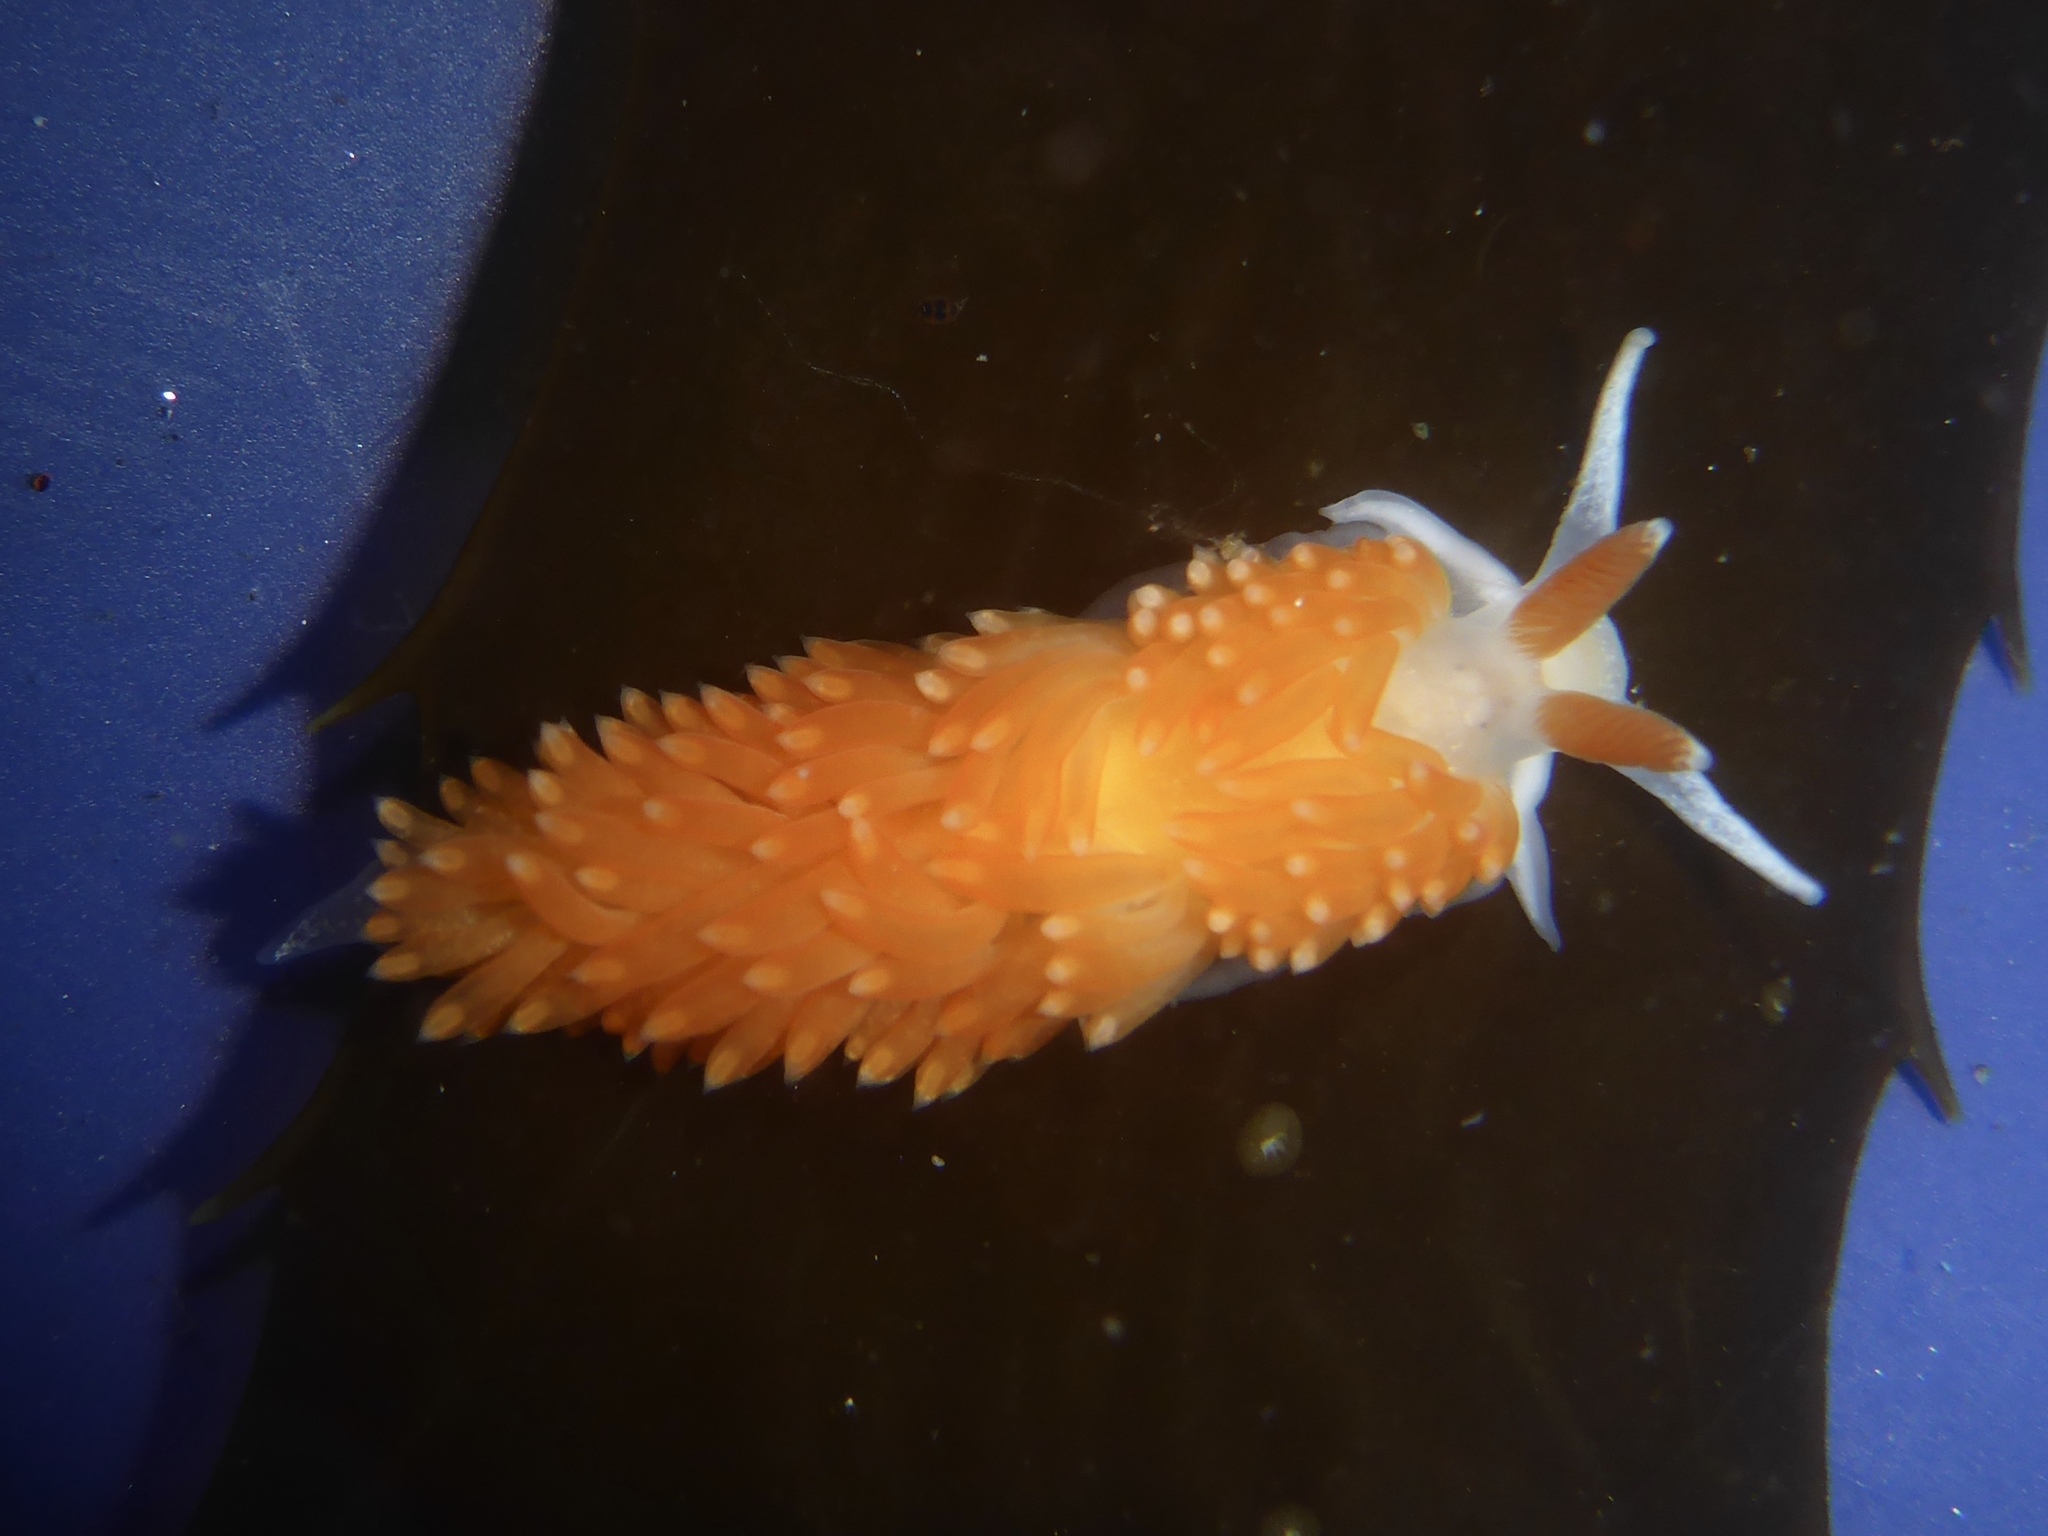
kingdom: Animalia
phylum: Mollusca
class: Gastropoda
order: Nudibranchia
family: Aeolidiidae
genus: Anteaeolidiella
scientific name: Anteaeolidiella oliviae
